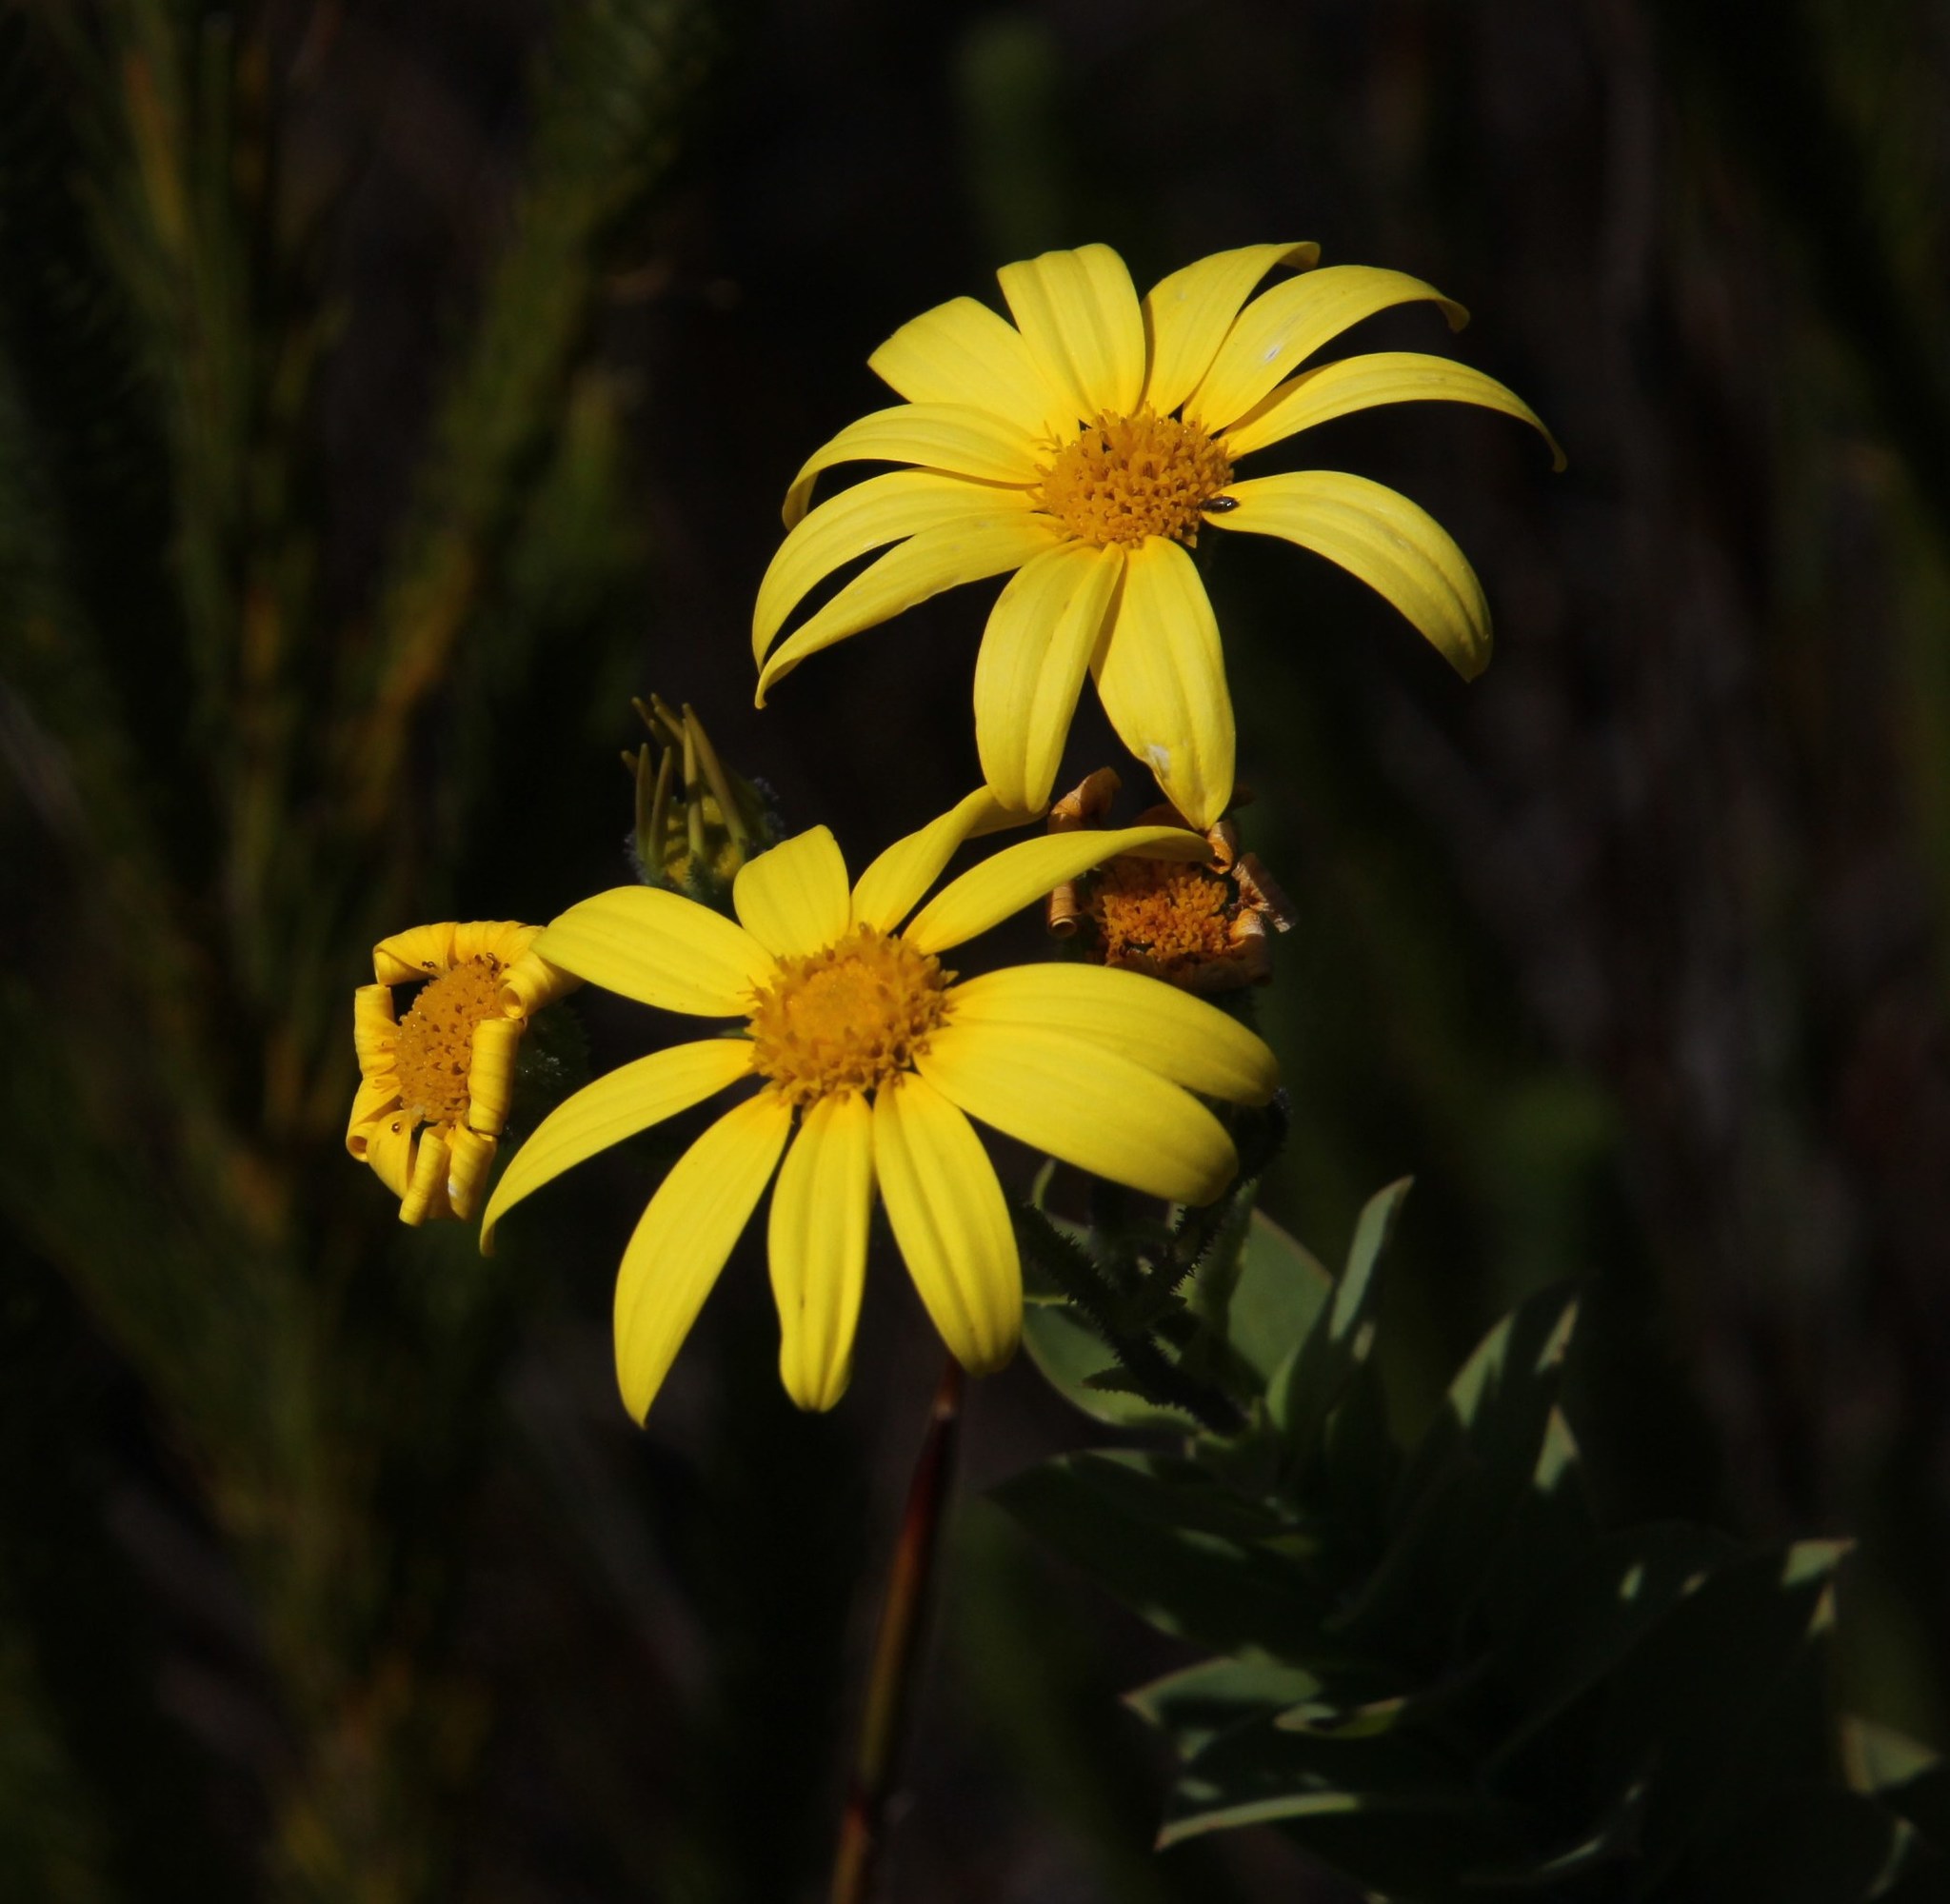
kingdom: Plantae
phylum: Tracheophyta
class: Magnoliopsida
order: Asterales
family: Asteraceae
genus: Osteospermum
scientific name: Osteospermum polygaloides
